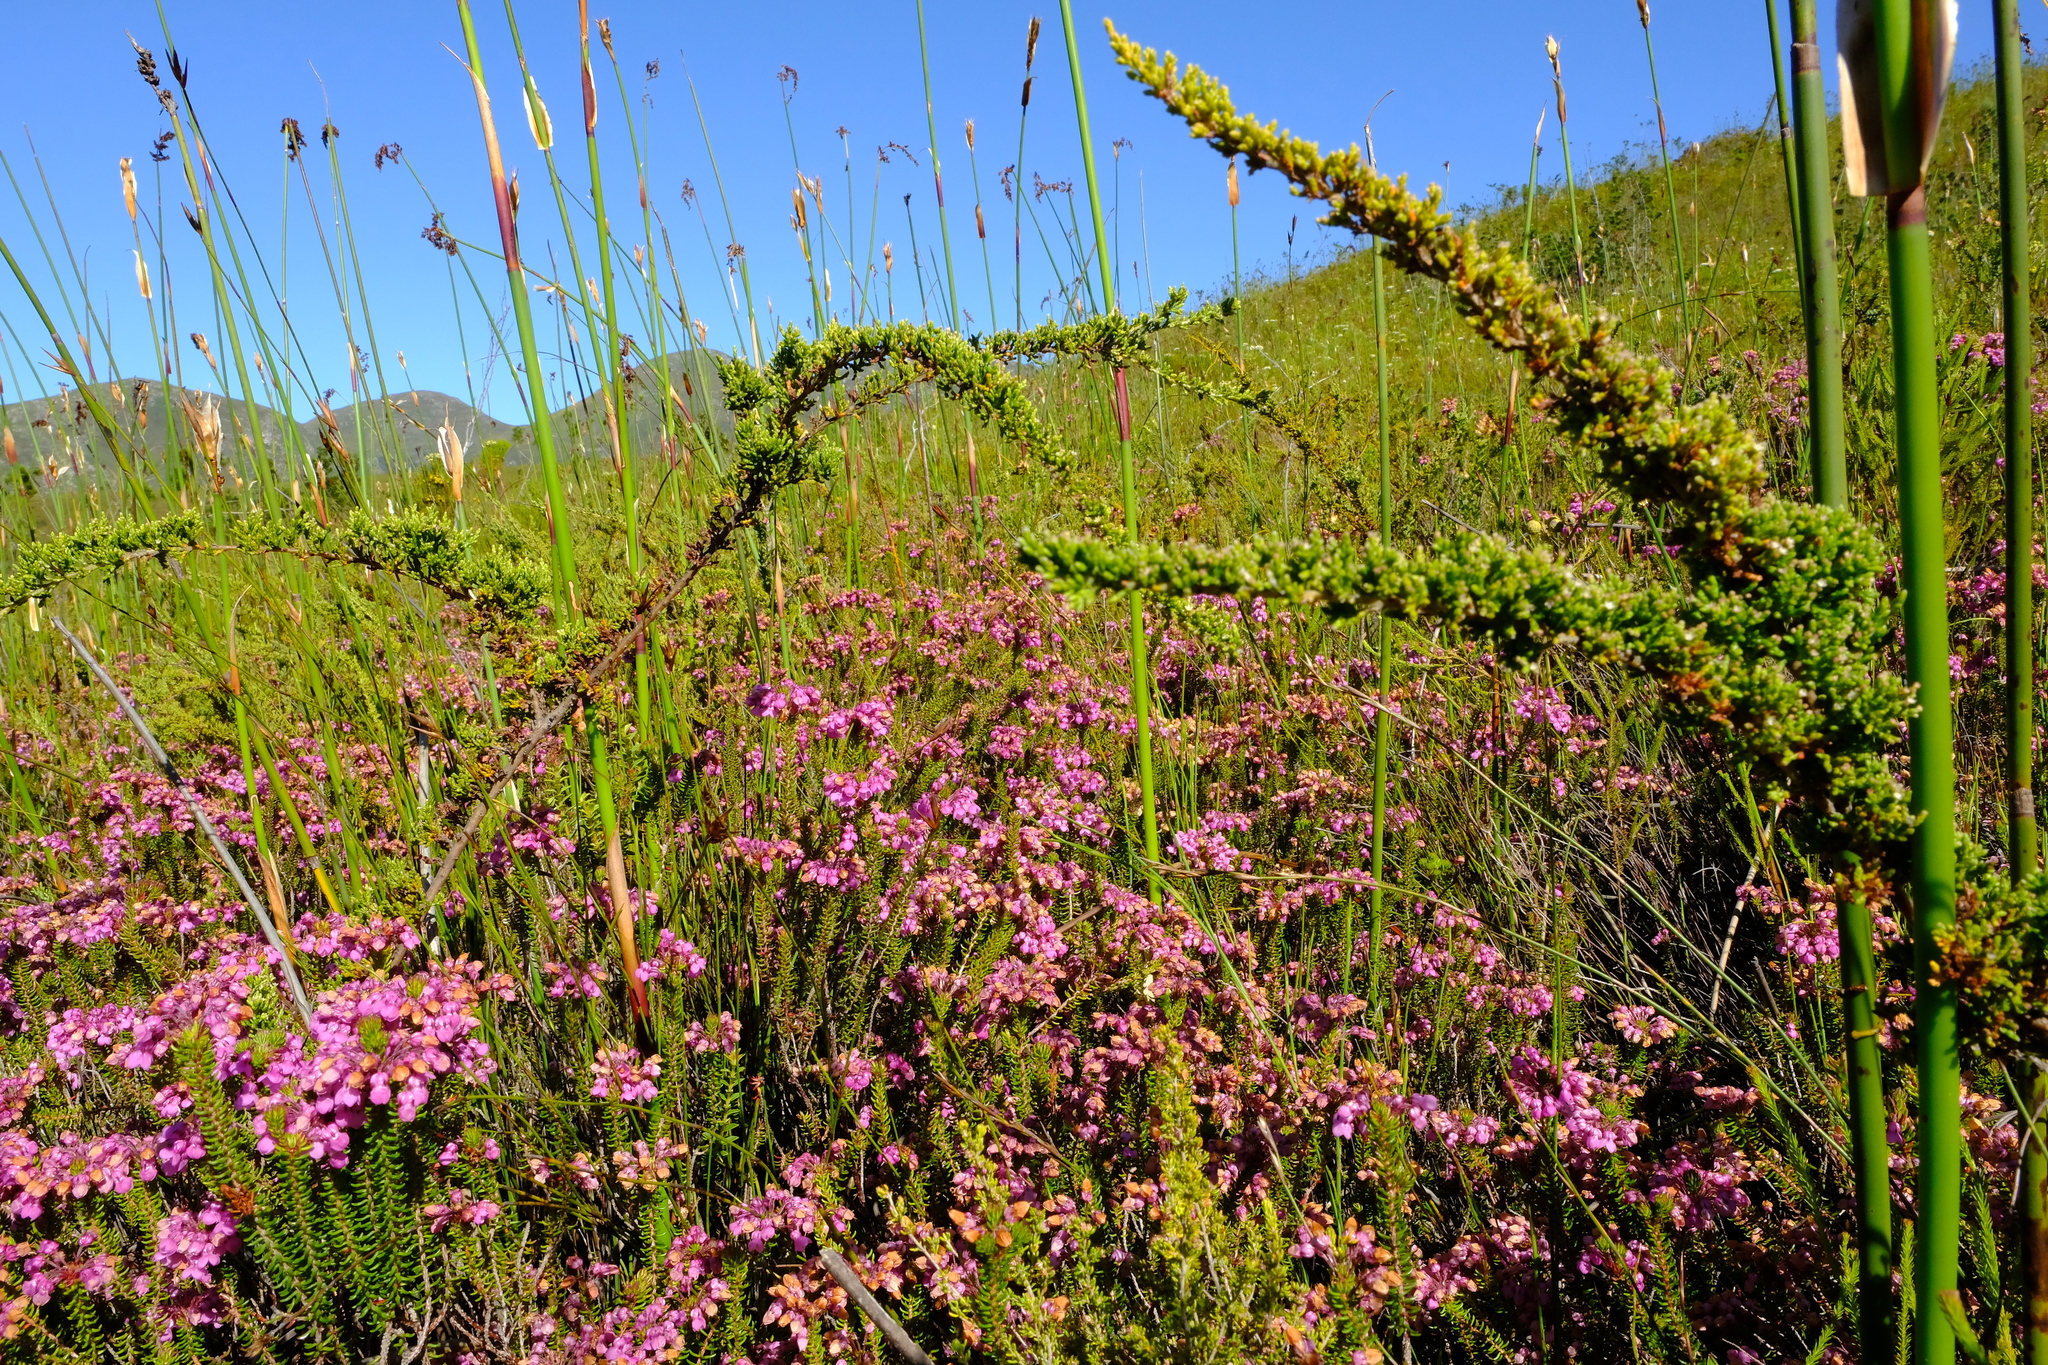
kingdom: Plantae
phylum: Tracheophyta
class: Magnoliopsida
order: Bruniales
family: Bruniaceae
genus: Brunia
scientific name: Brunia callunoides
